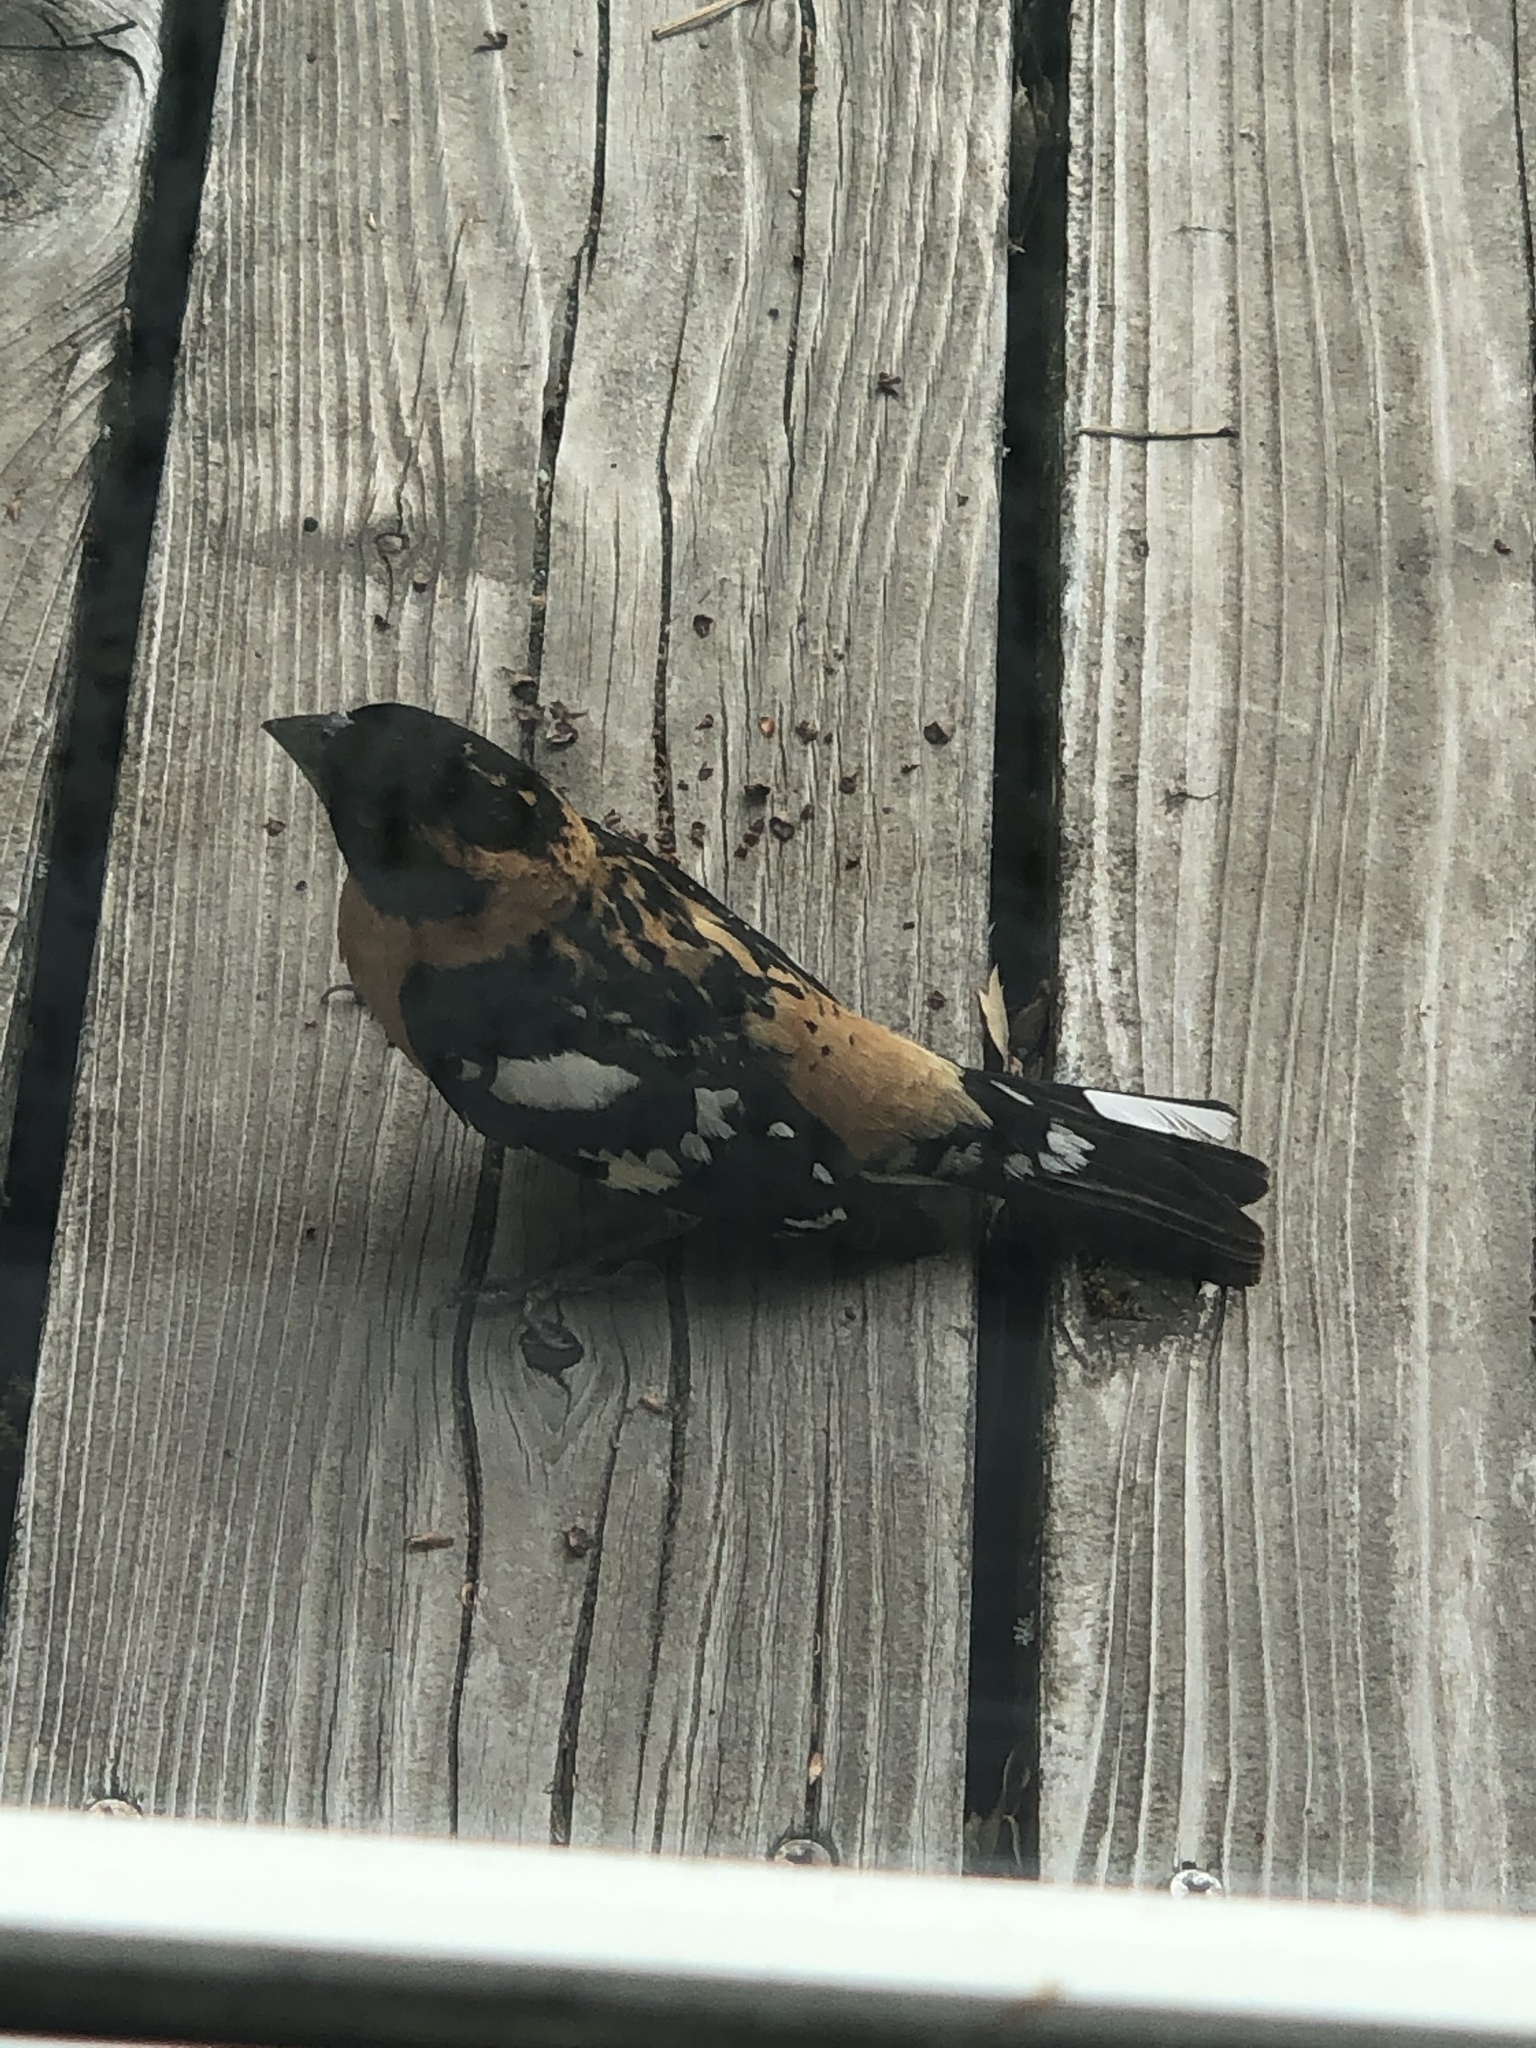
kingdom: Animalia
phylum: Chordata
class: Aves
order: Passeriformes
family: Cardinalidae
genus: Pheucticus
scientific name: Pheucticus melanocephalus
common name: Black-headed grosbeak
